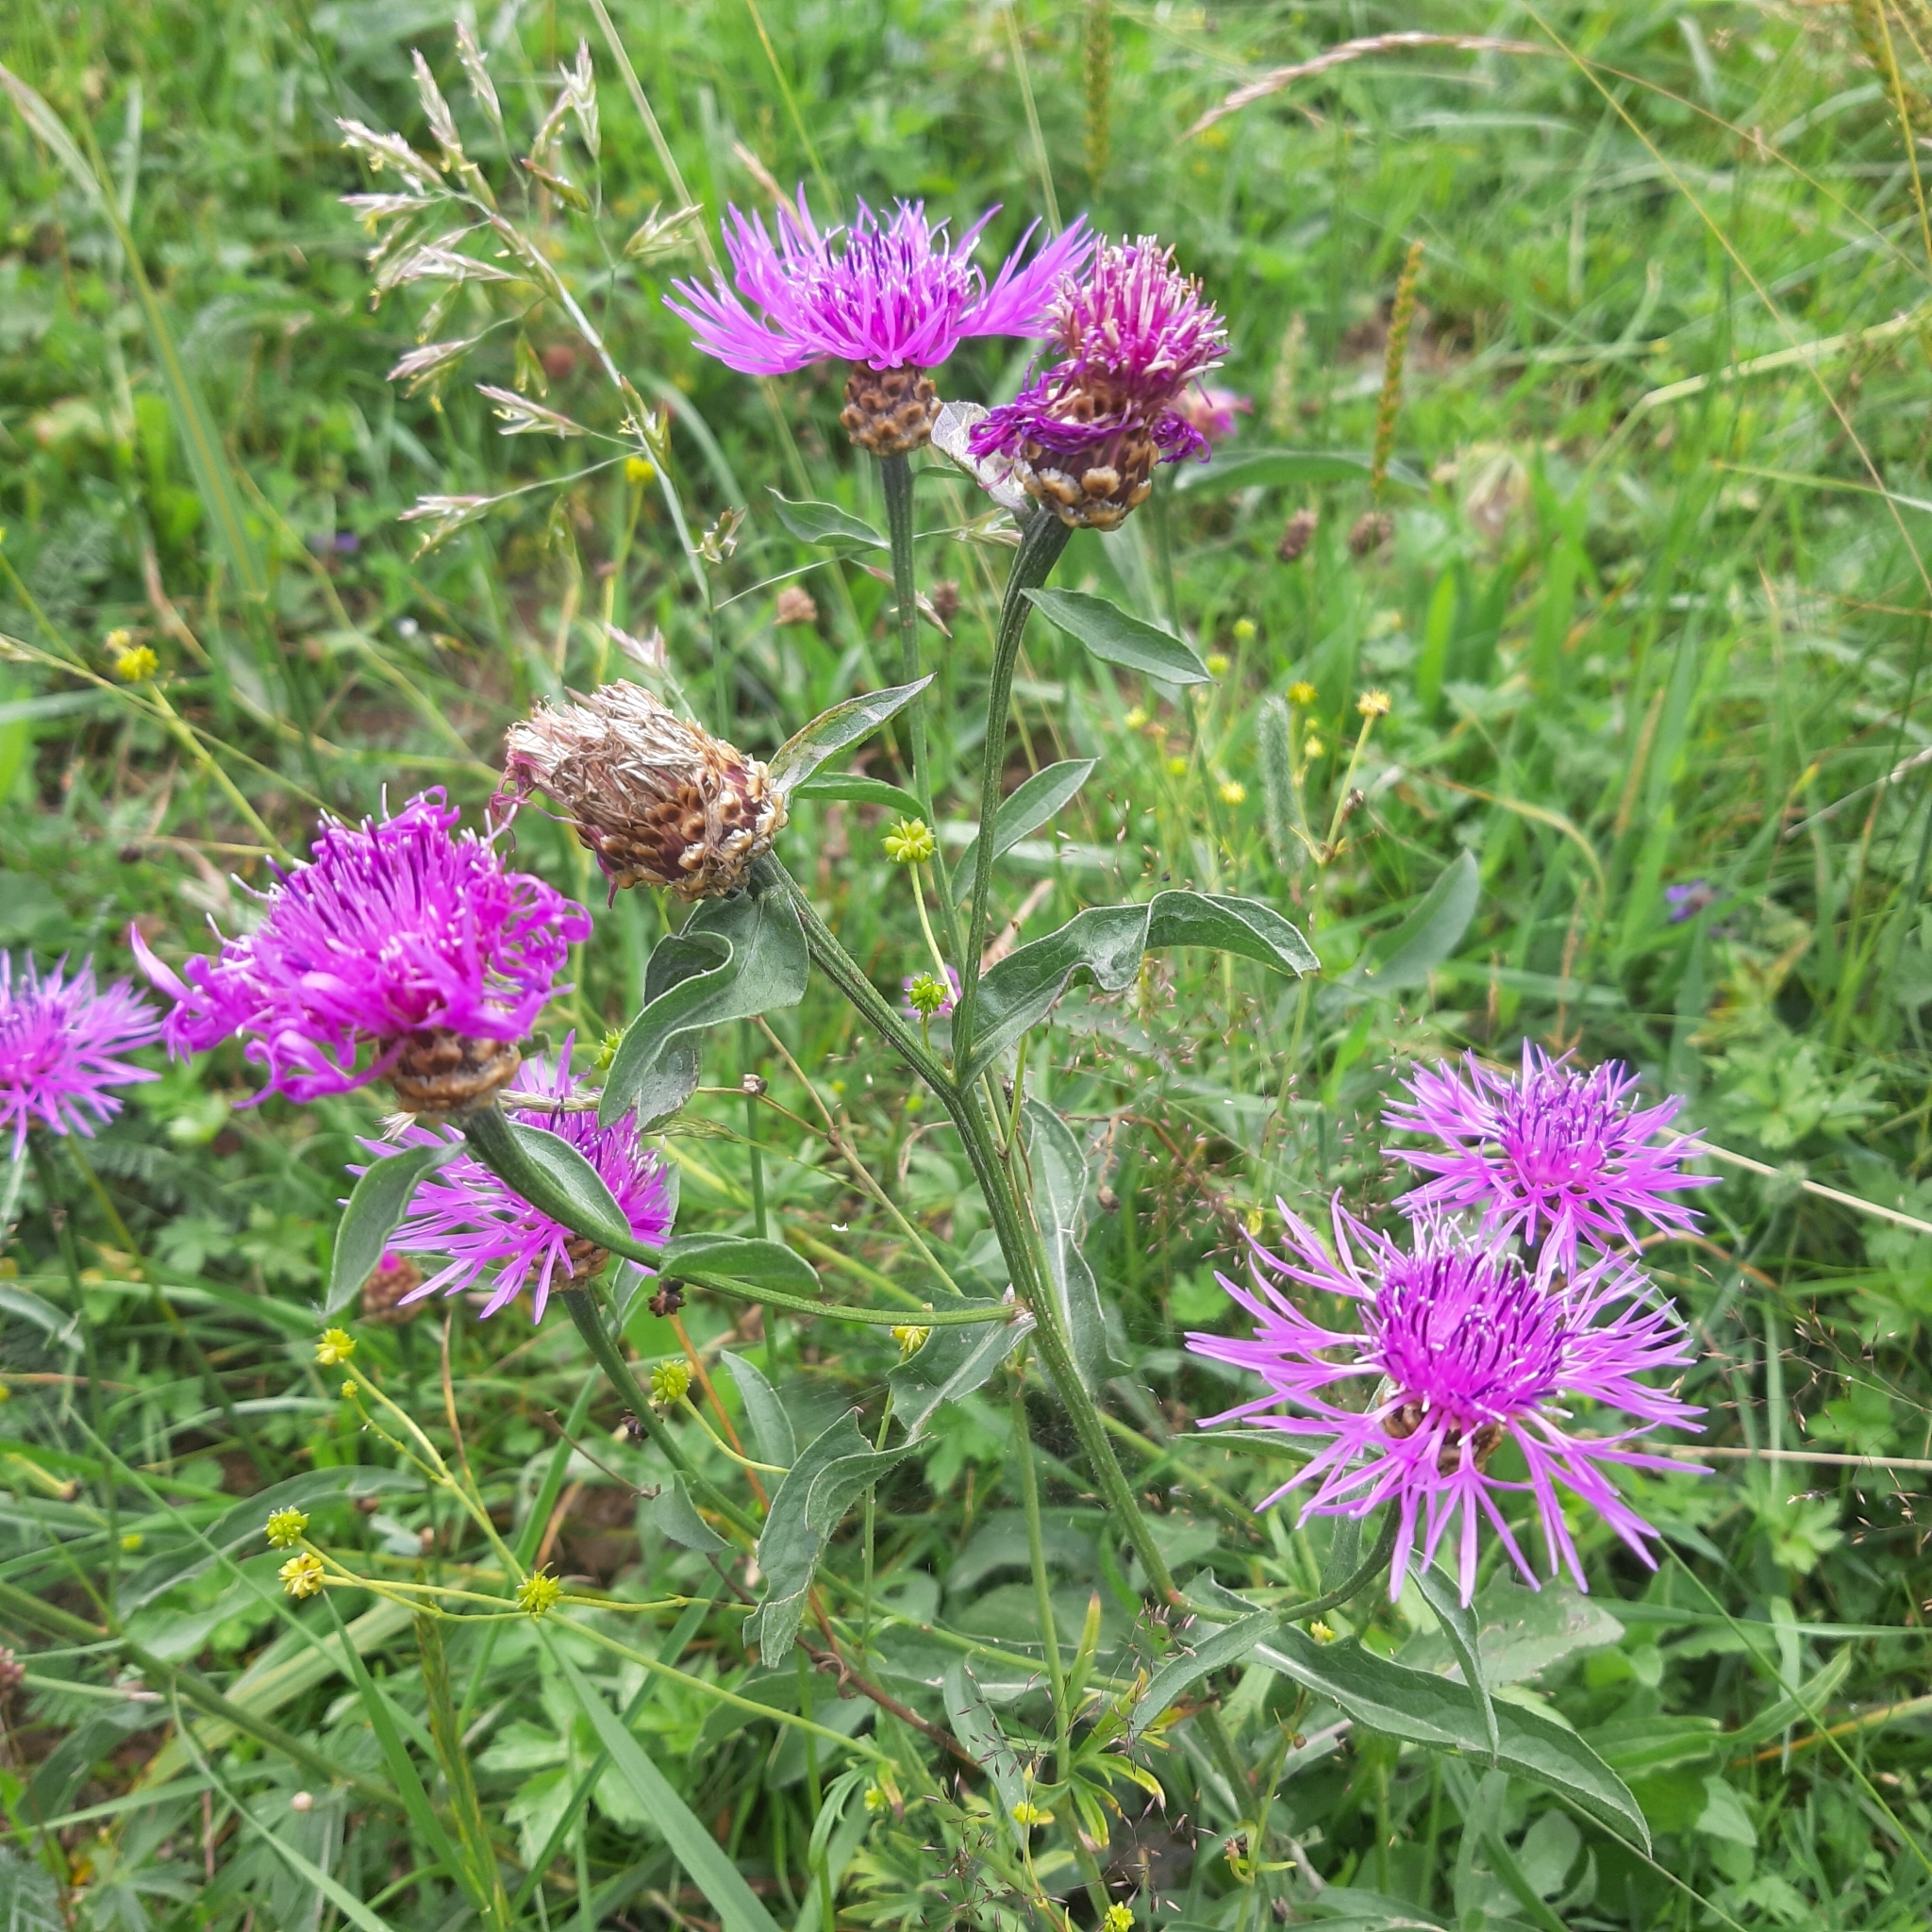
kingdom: Plantae
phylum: Tracheophyta
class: Magnoliopsida
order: Asterales
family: Asteraceae
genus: Centaurea
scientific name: Centaurea jacea
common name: Brown knapweed
